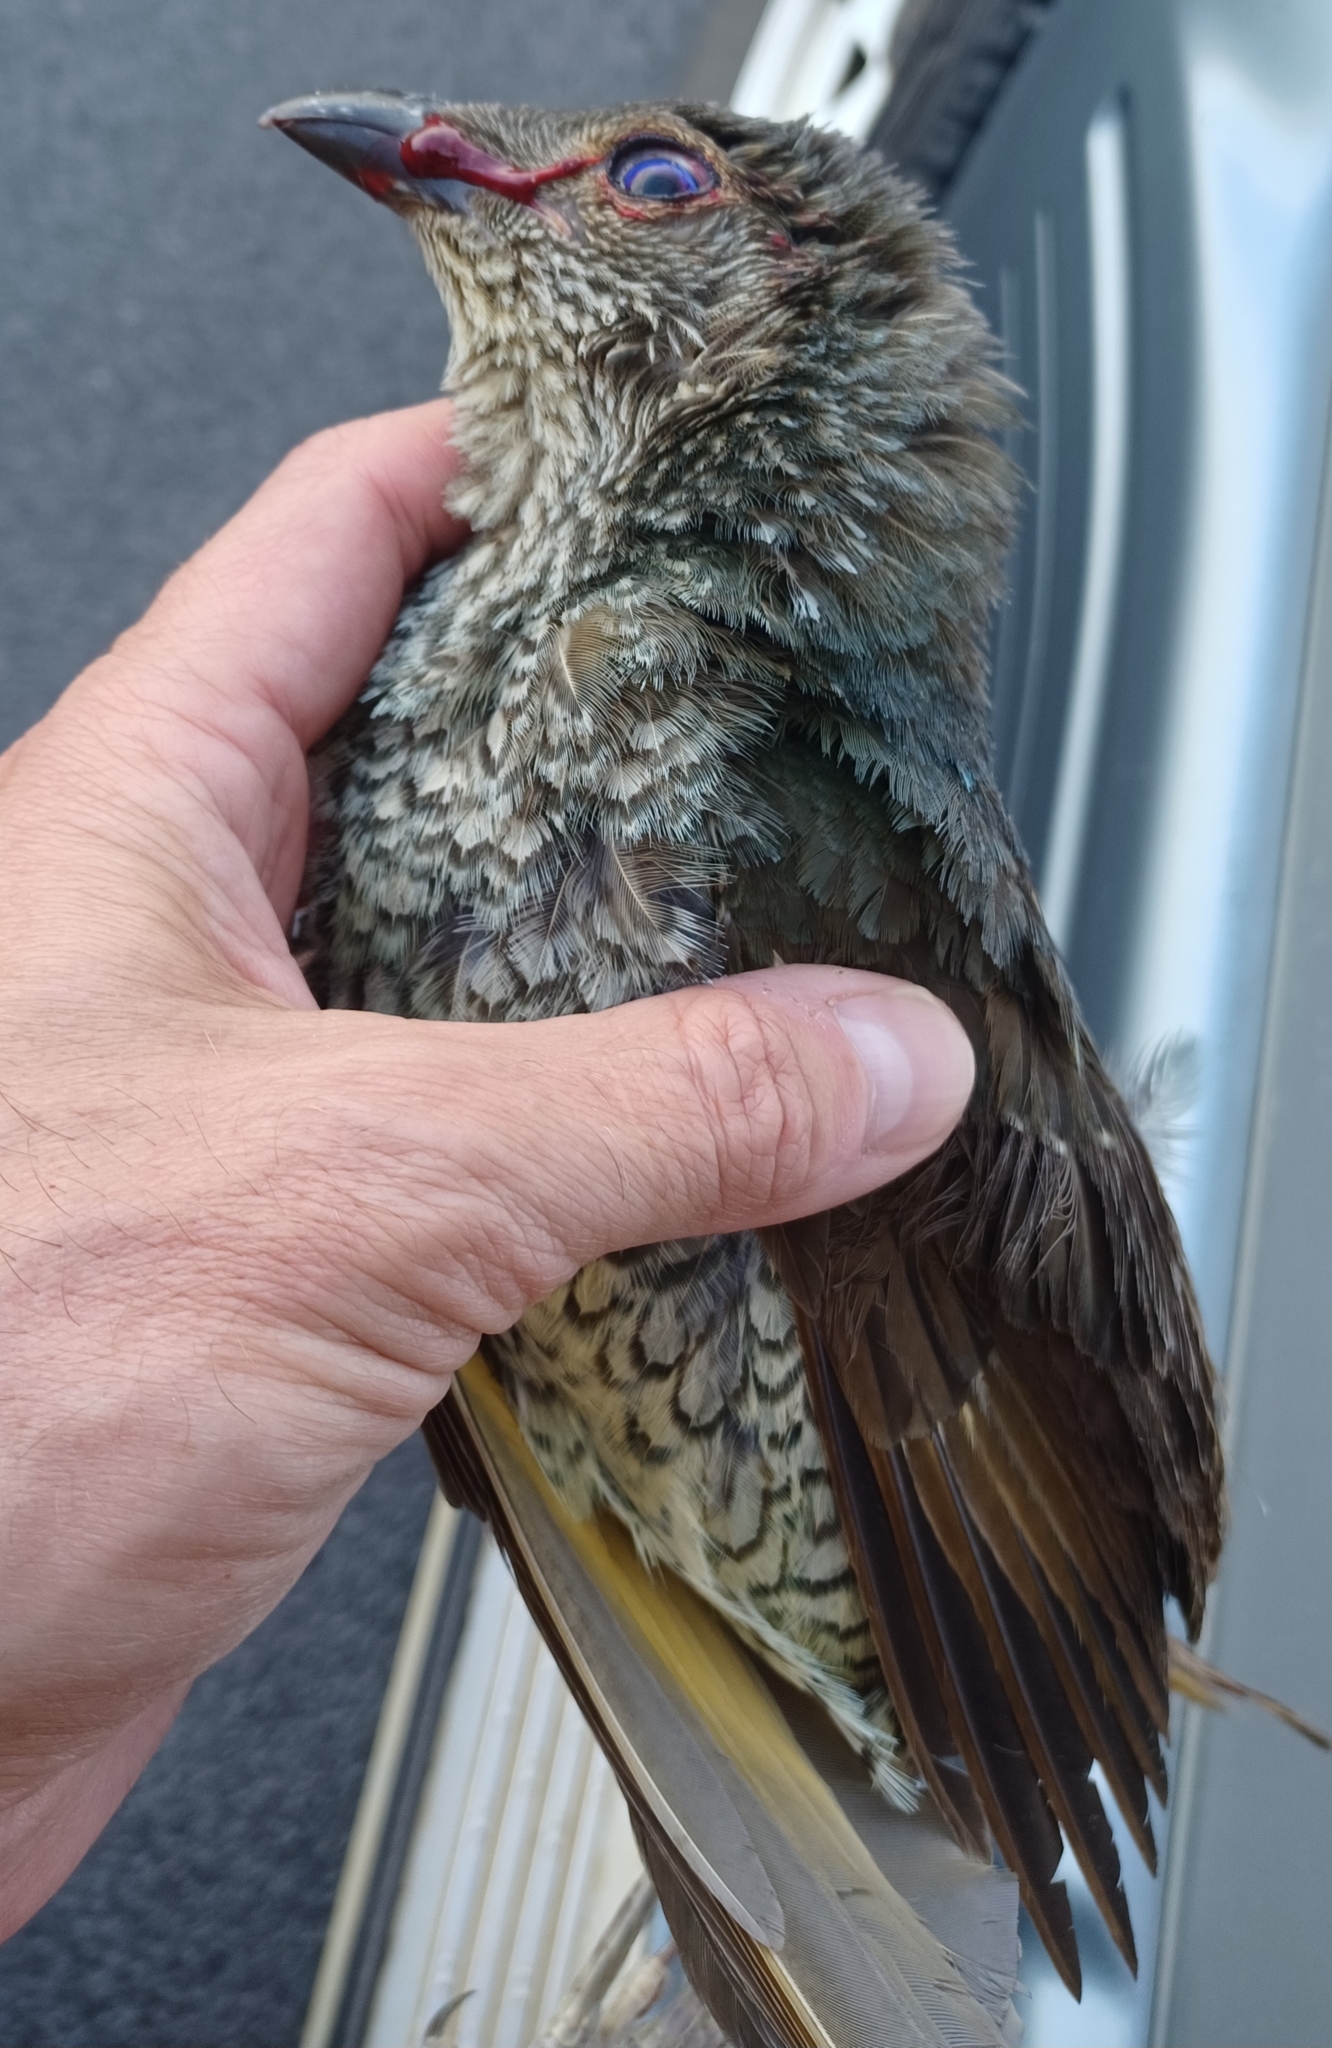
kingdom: Animalia
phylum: Chordata
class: Aves
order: Passeriformes
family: Ptilonorhynchidae
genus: Ptilonorhynchus
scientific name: Ptilonorhynchus violaceus
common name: Satin bowerbird
